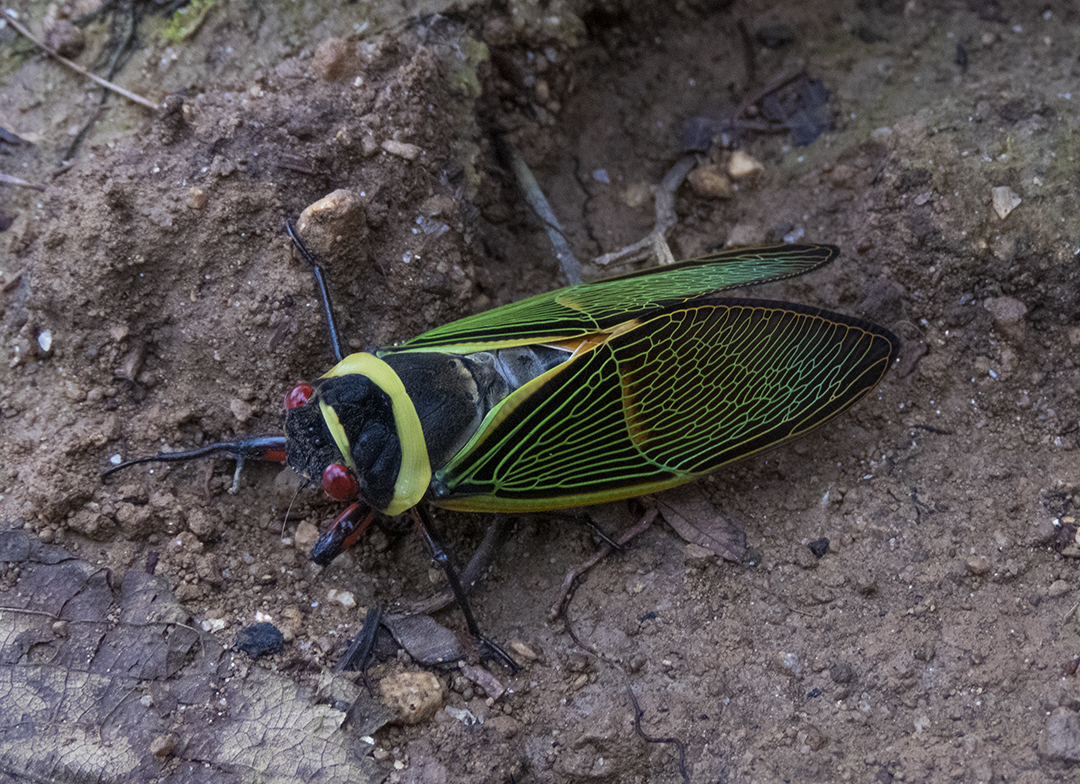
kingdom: Animalia
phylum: Arthropoda
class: Insecta
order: Hemiptera
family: Cicadidae
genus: Polyneura
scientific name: Polyneura ducalis
